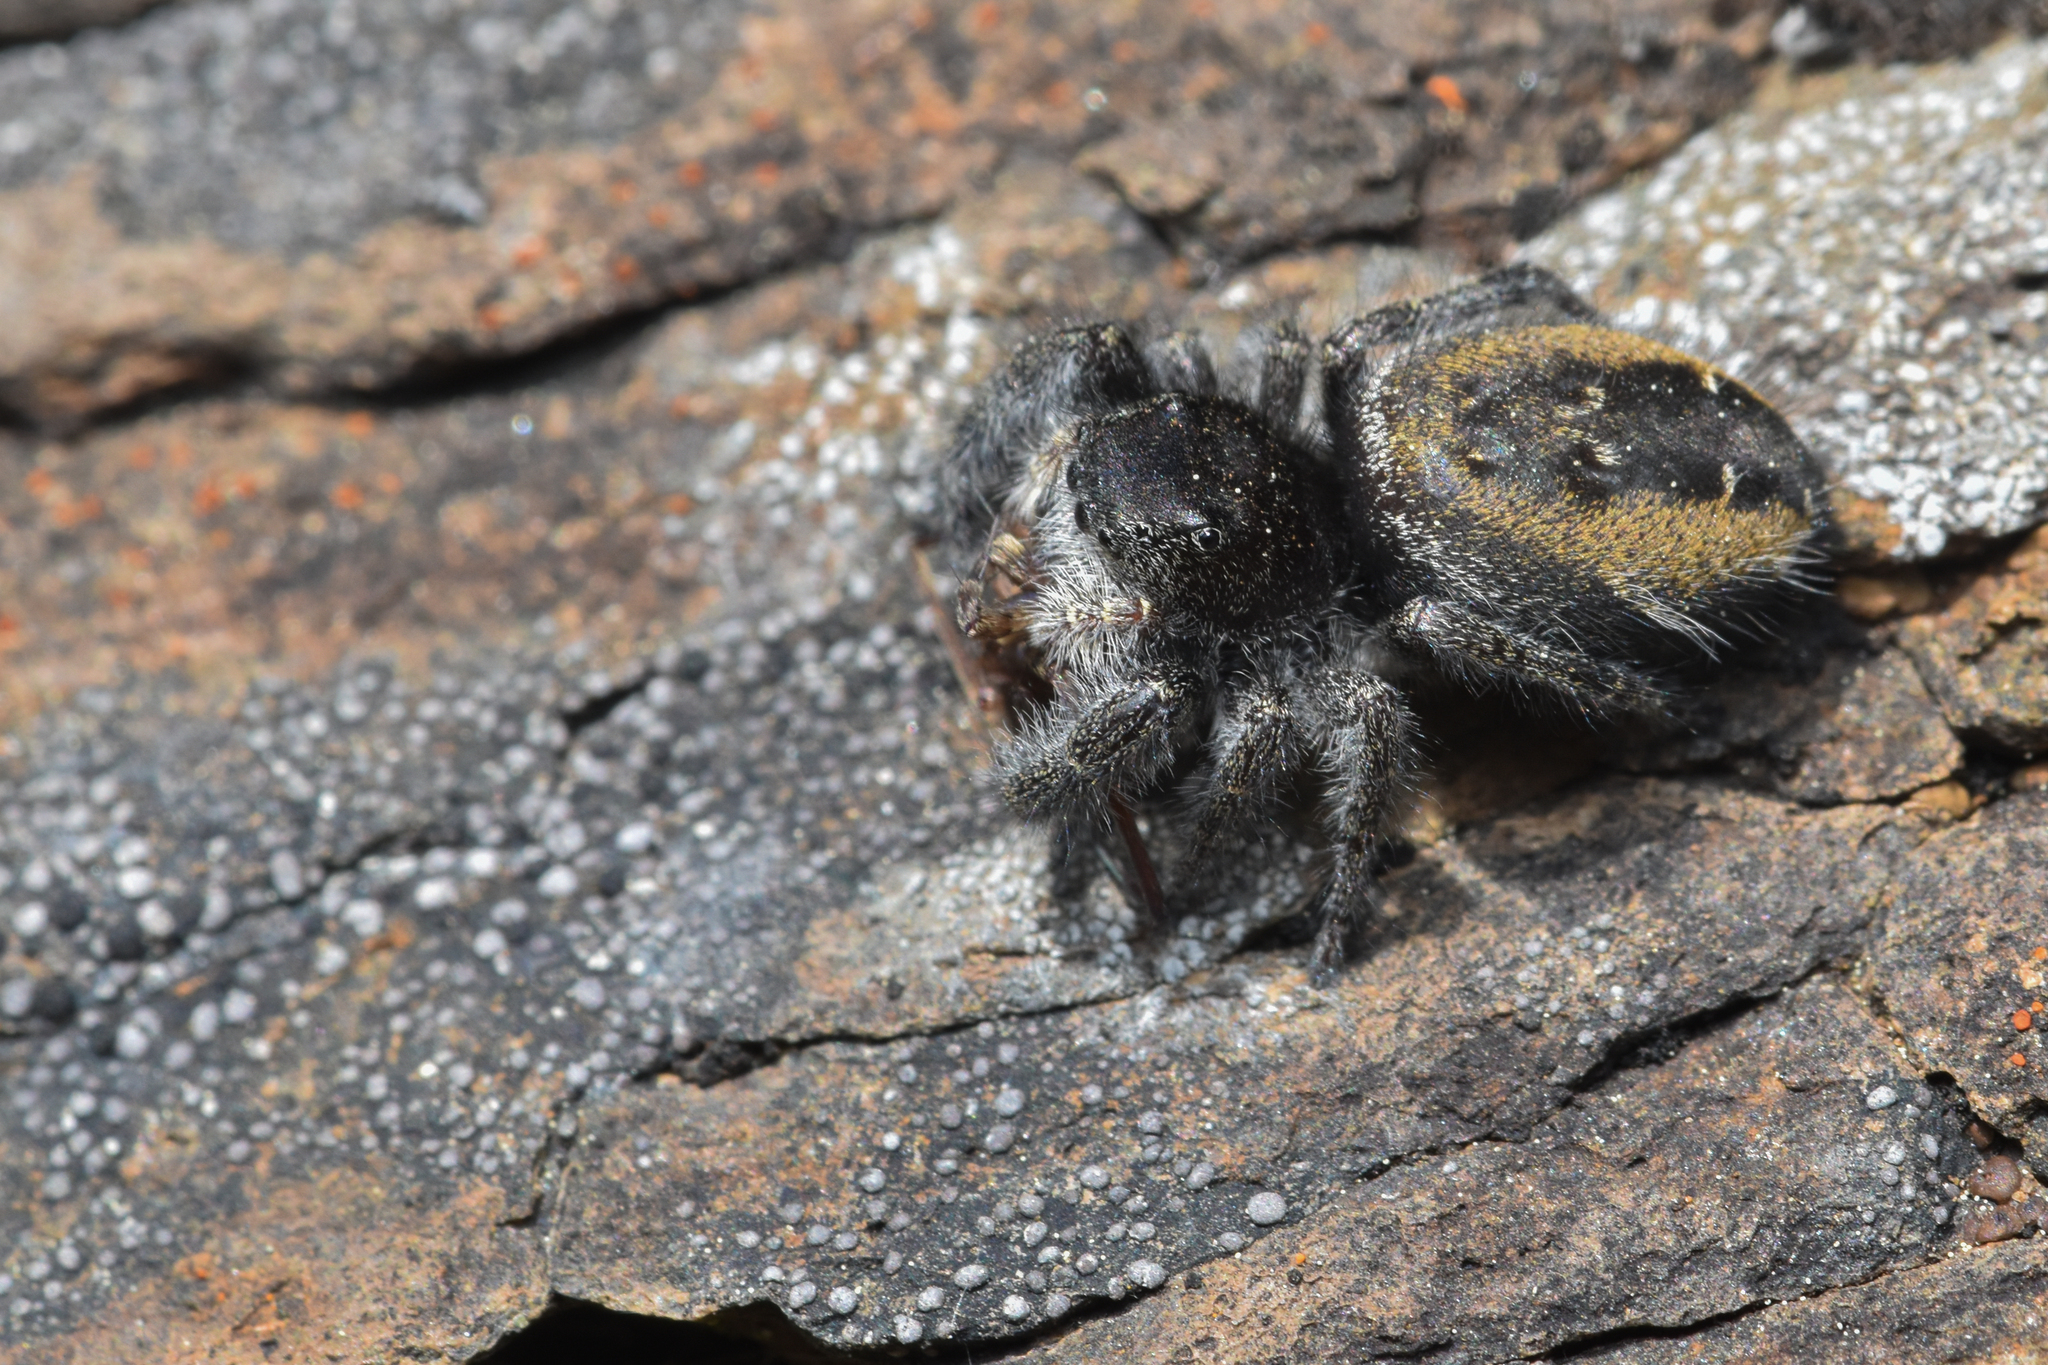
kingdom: Animalia
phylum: Arthropoda
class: Arachnida
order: Araneae
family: Salticidae
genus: Phidippus
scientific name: Phidippus johnsoni
